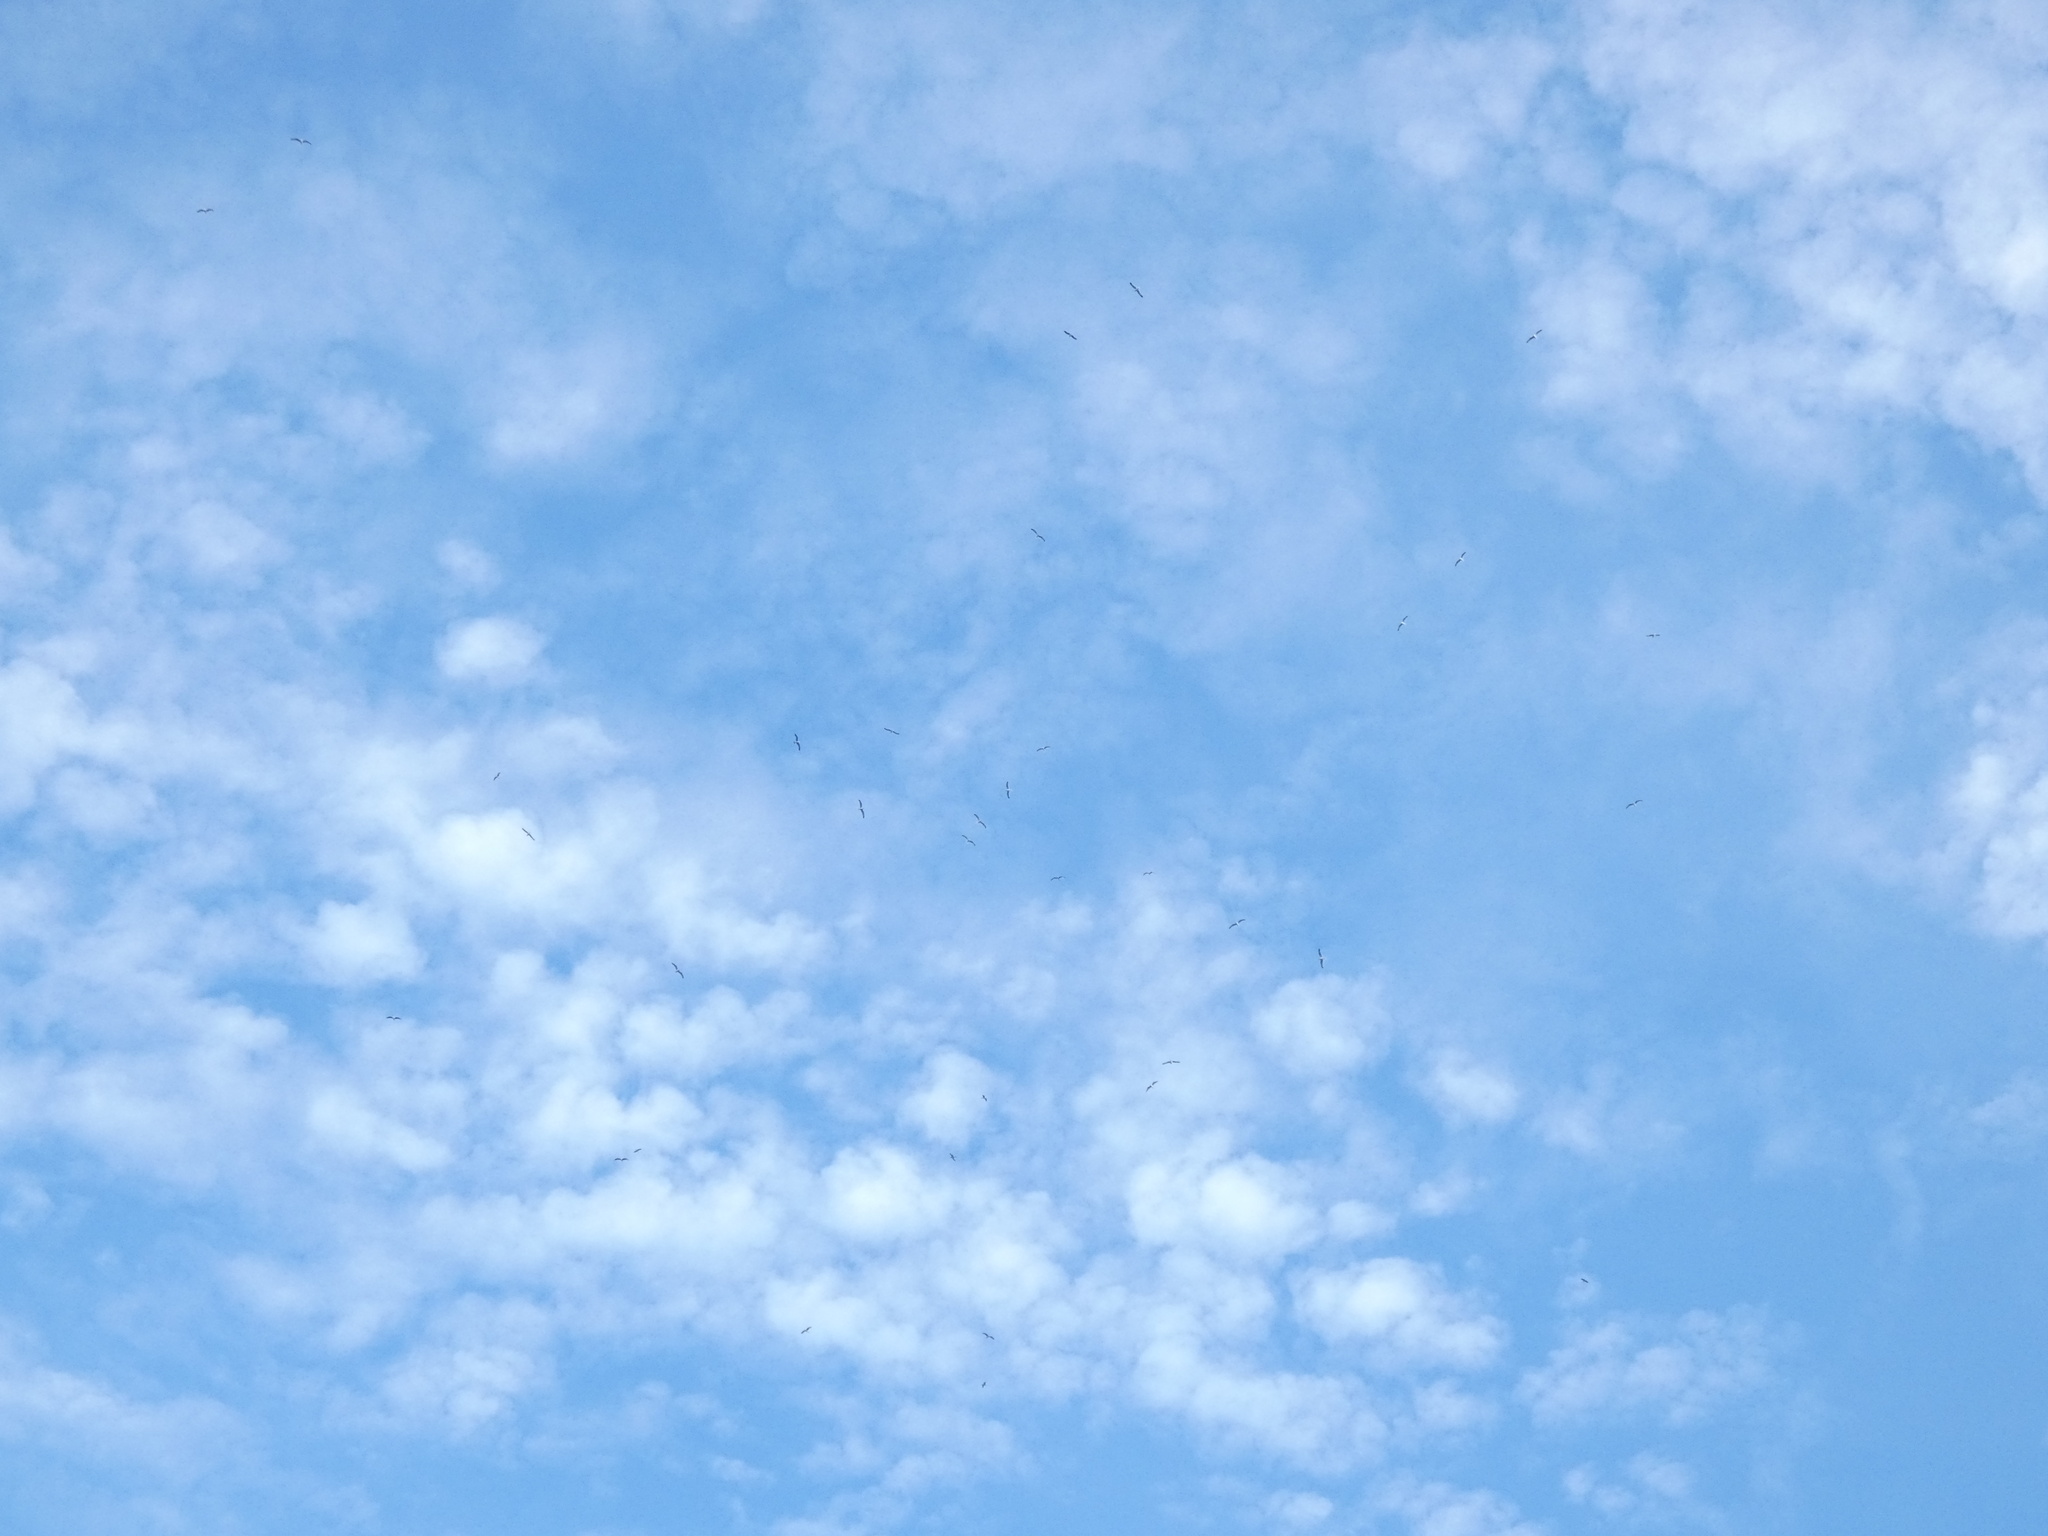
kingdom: Animalia
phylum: Chordata
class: Aves
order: Charadriiformes
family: Laridae
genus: Larus
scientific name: Larus canus
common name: Mew gull
